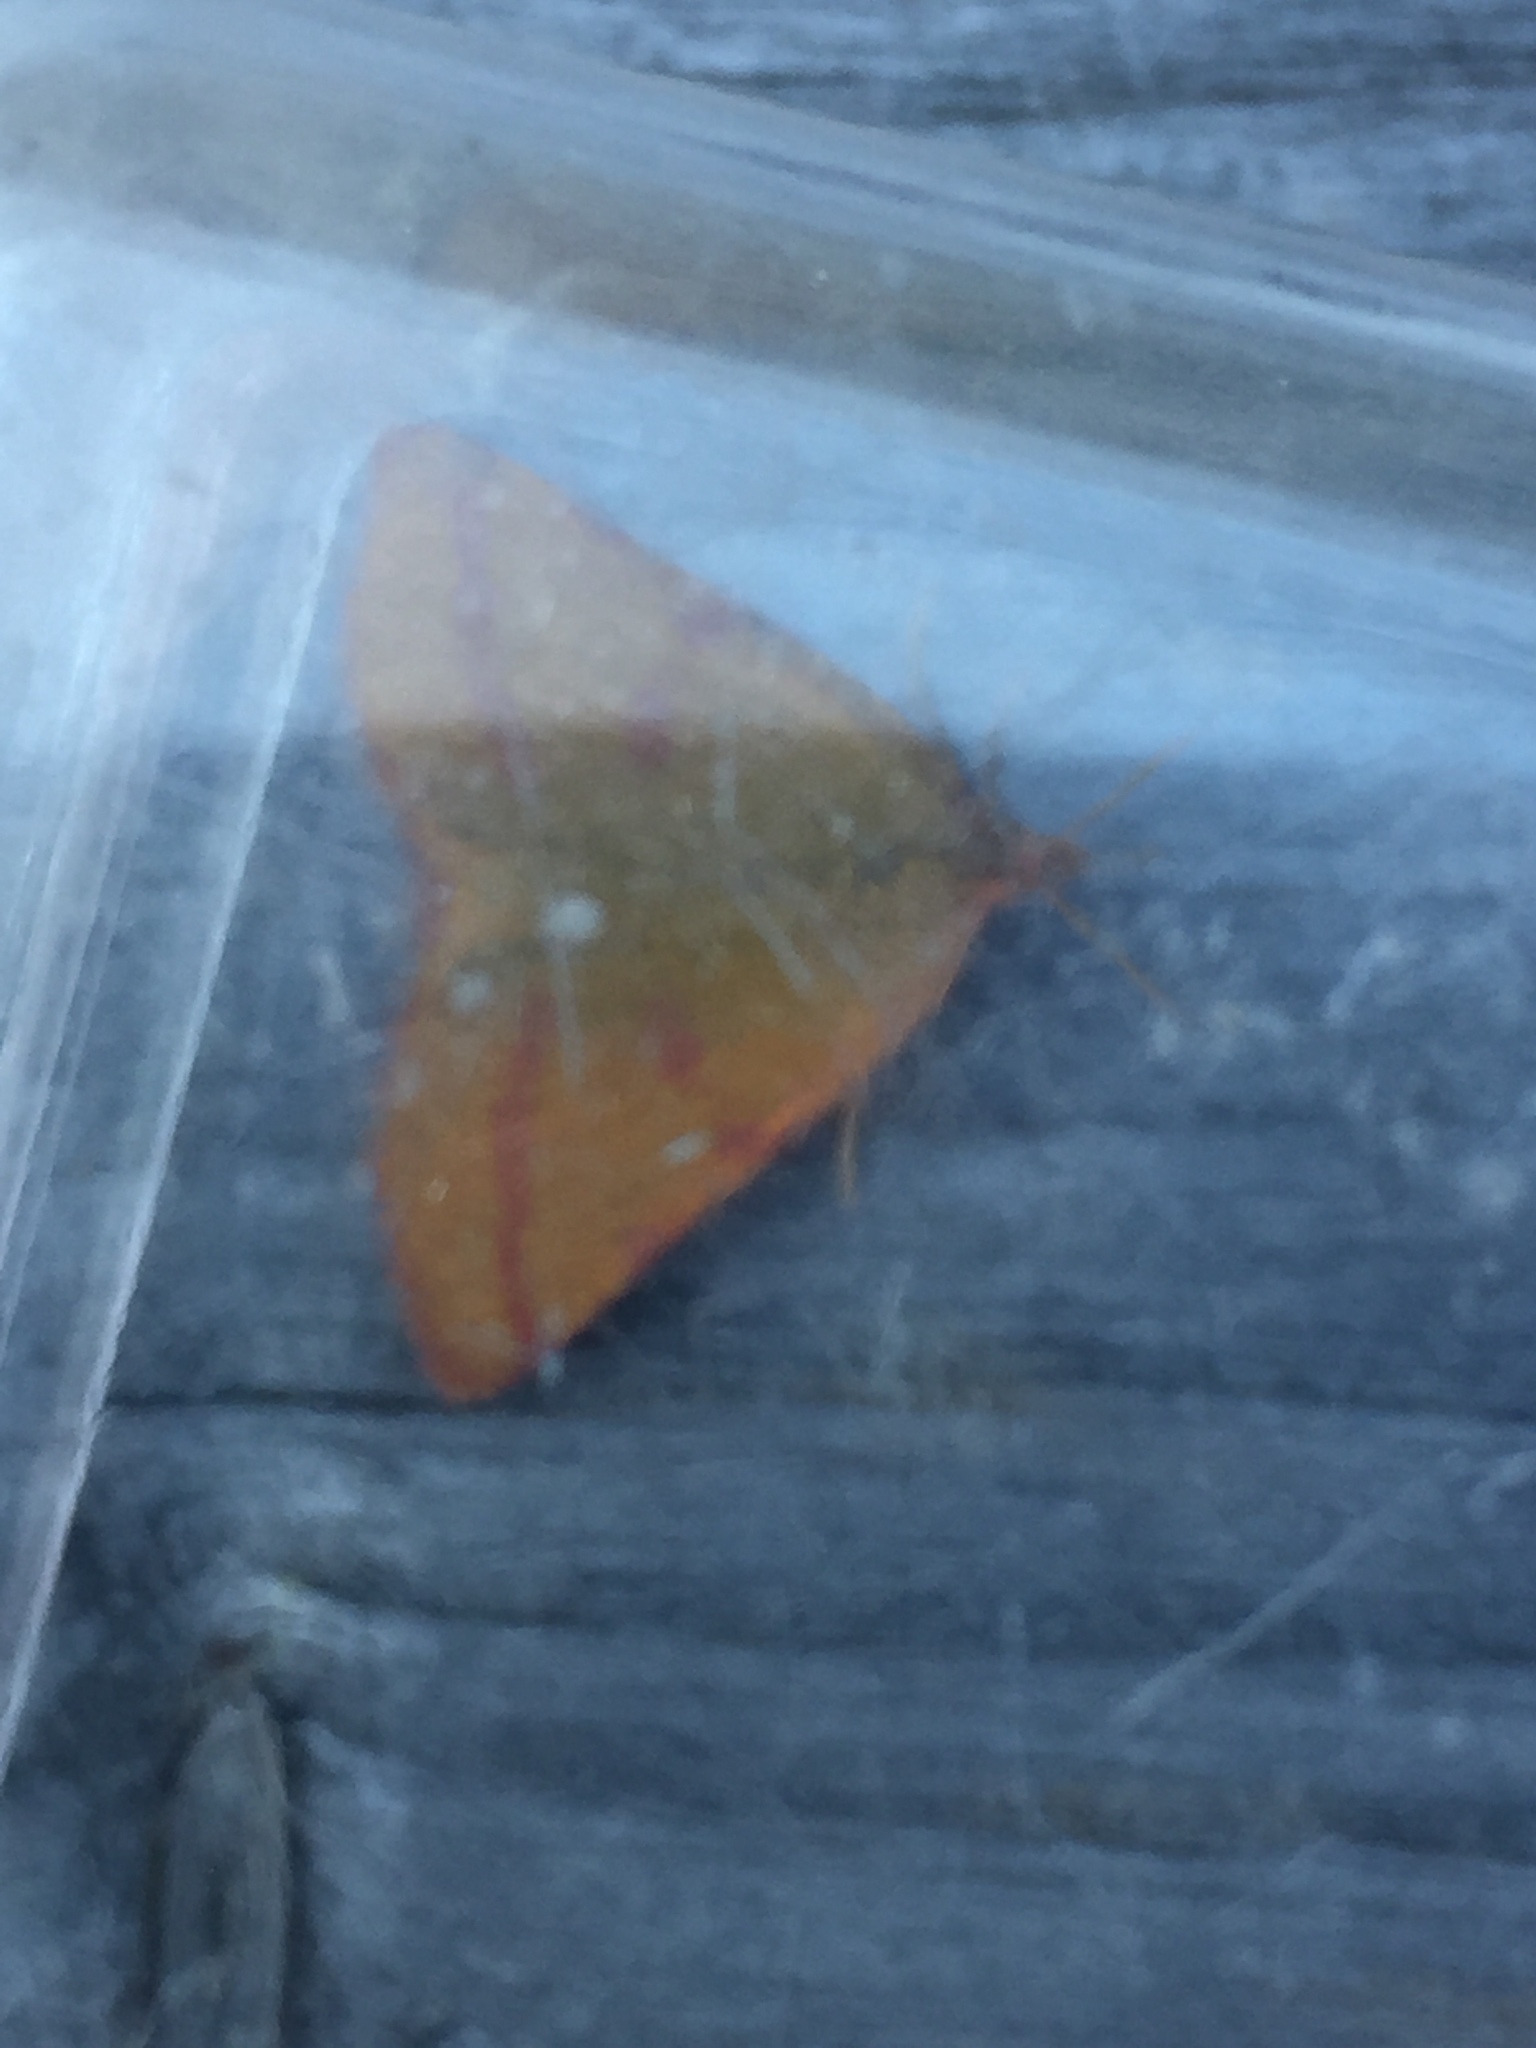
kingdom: Animalia
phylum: Arthropoda
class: Insecta
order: Lepidoptera
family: Geometridae
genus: Lythria
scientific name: Lythria purpuraria
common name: Purple-barred yellow
